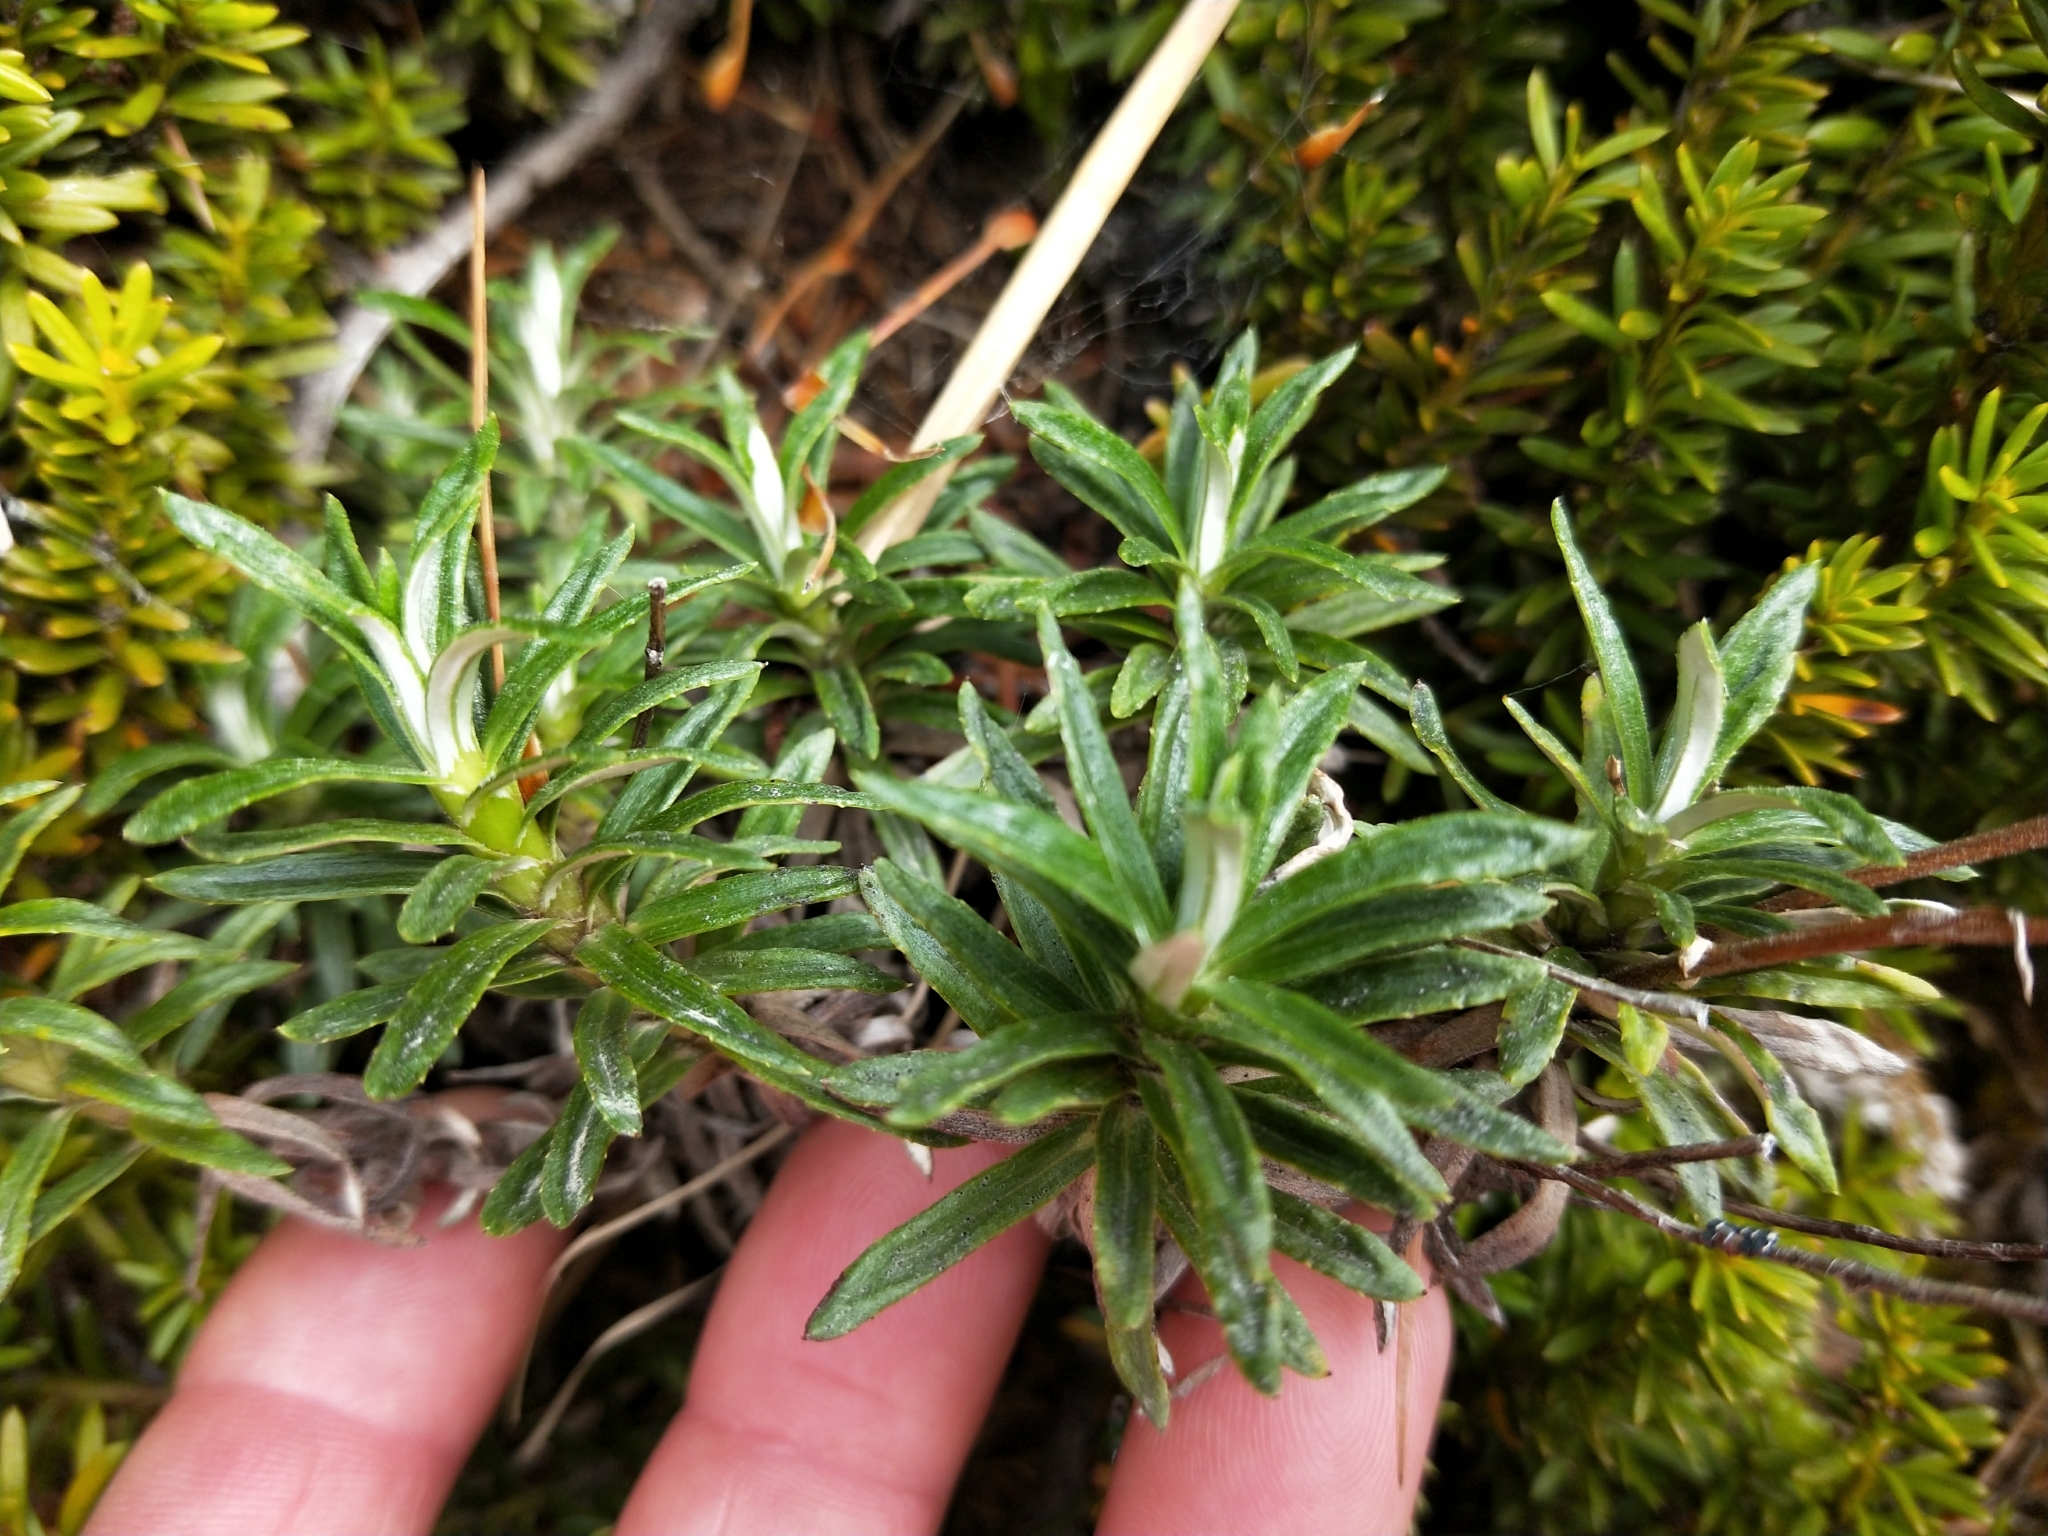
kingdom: Plantae
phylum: Tracheophyta
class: Magnoliopsida
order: Asterales
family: Asteraceae
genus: Celmisia
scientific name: Celmisia walkeri
